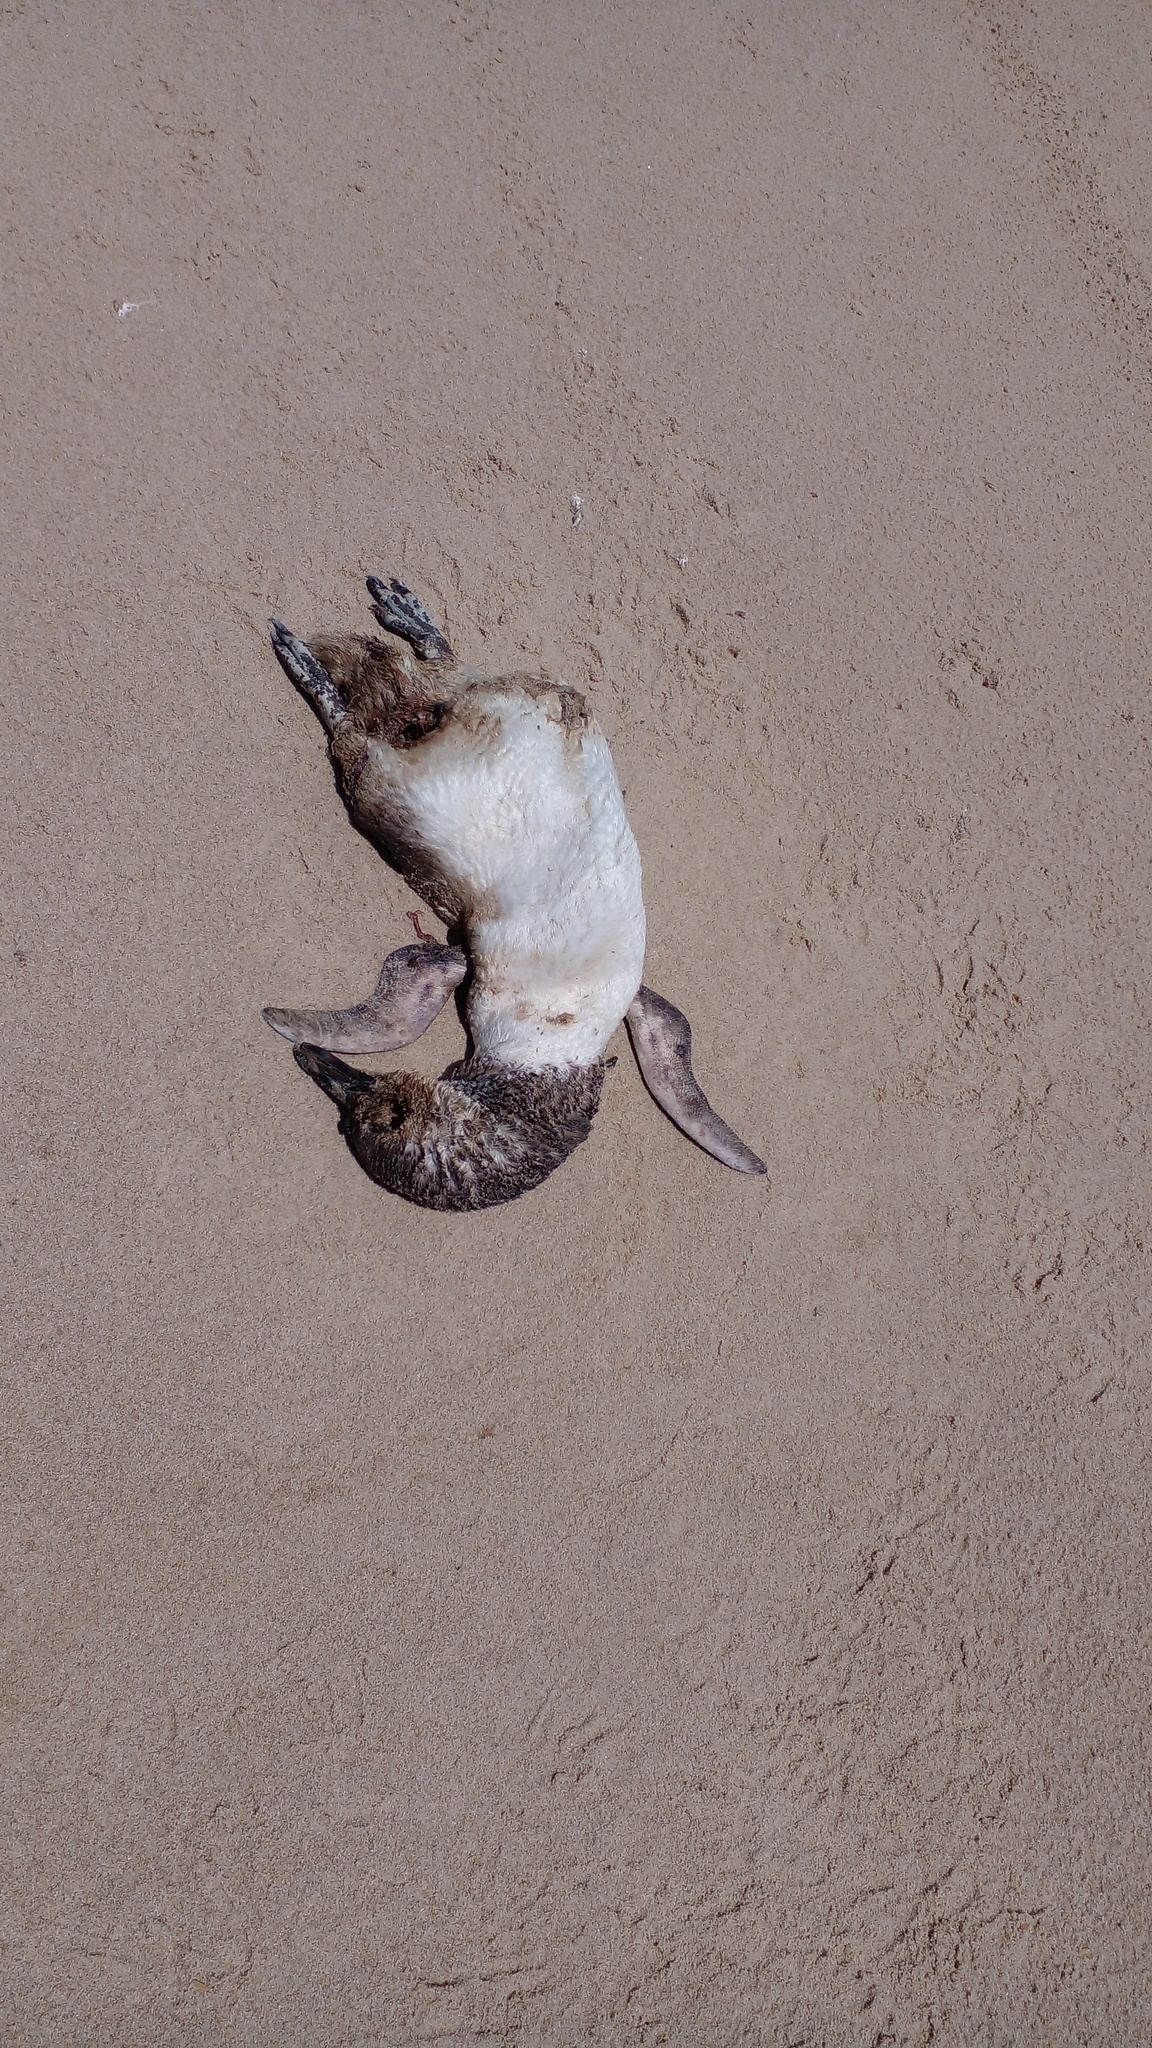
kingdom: Animalia
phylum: Chordata
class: Aves
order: Sphenisciformes
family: Spheniscidae
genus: Spheniscus
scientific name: Spheniscus magellanicus
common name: Magellanic penguin
